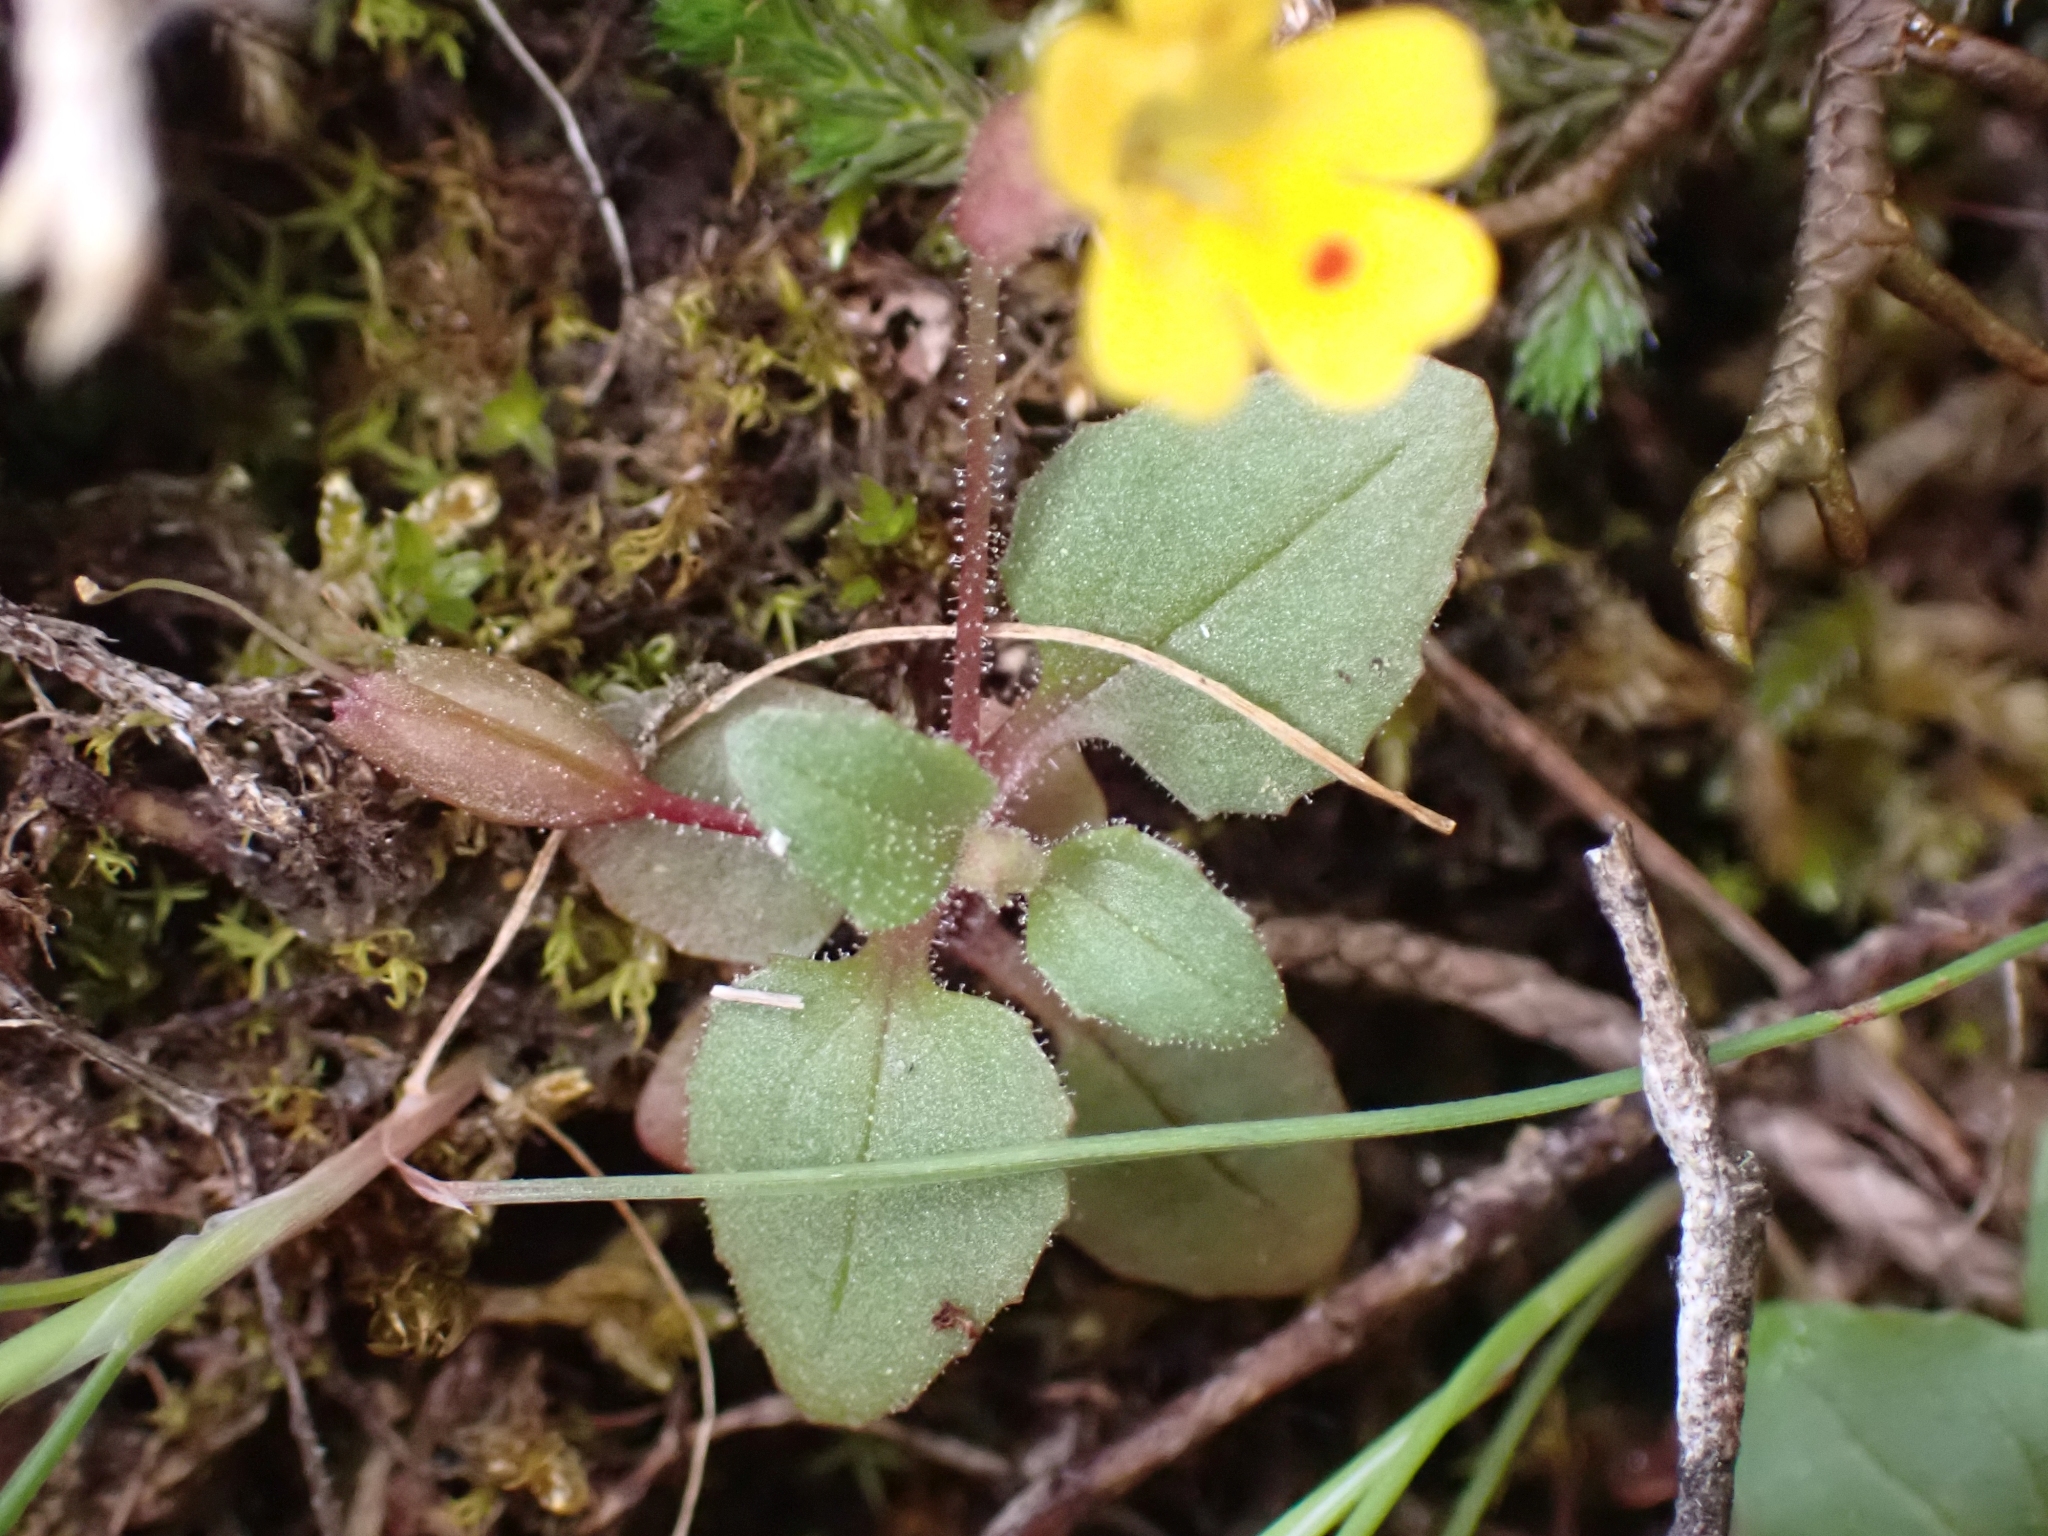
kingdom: Plantae
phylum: Tracheophyta
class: Magnoliopsida
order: Lamiales
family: Phrymaceae
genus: Erythranthe
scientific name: Erythranthe alsinoides
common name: Chickweed monkeyflower
